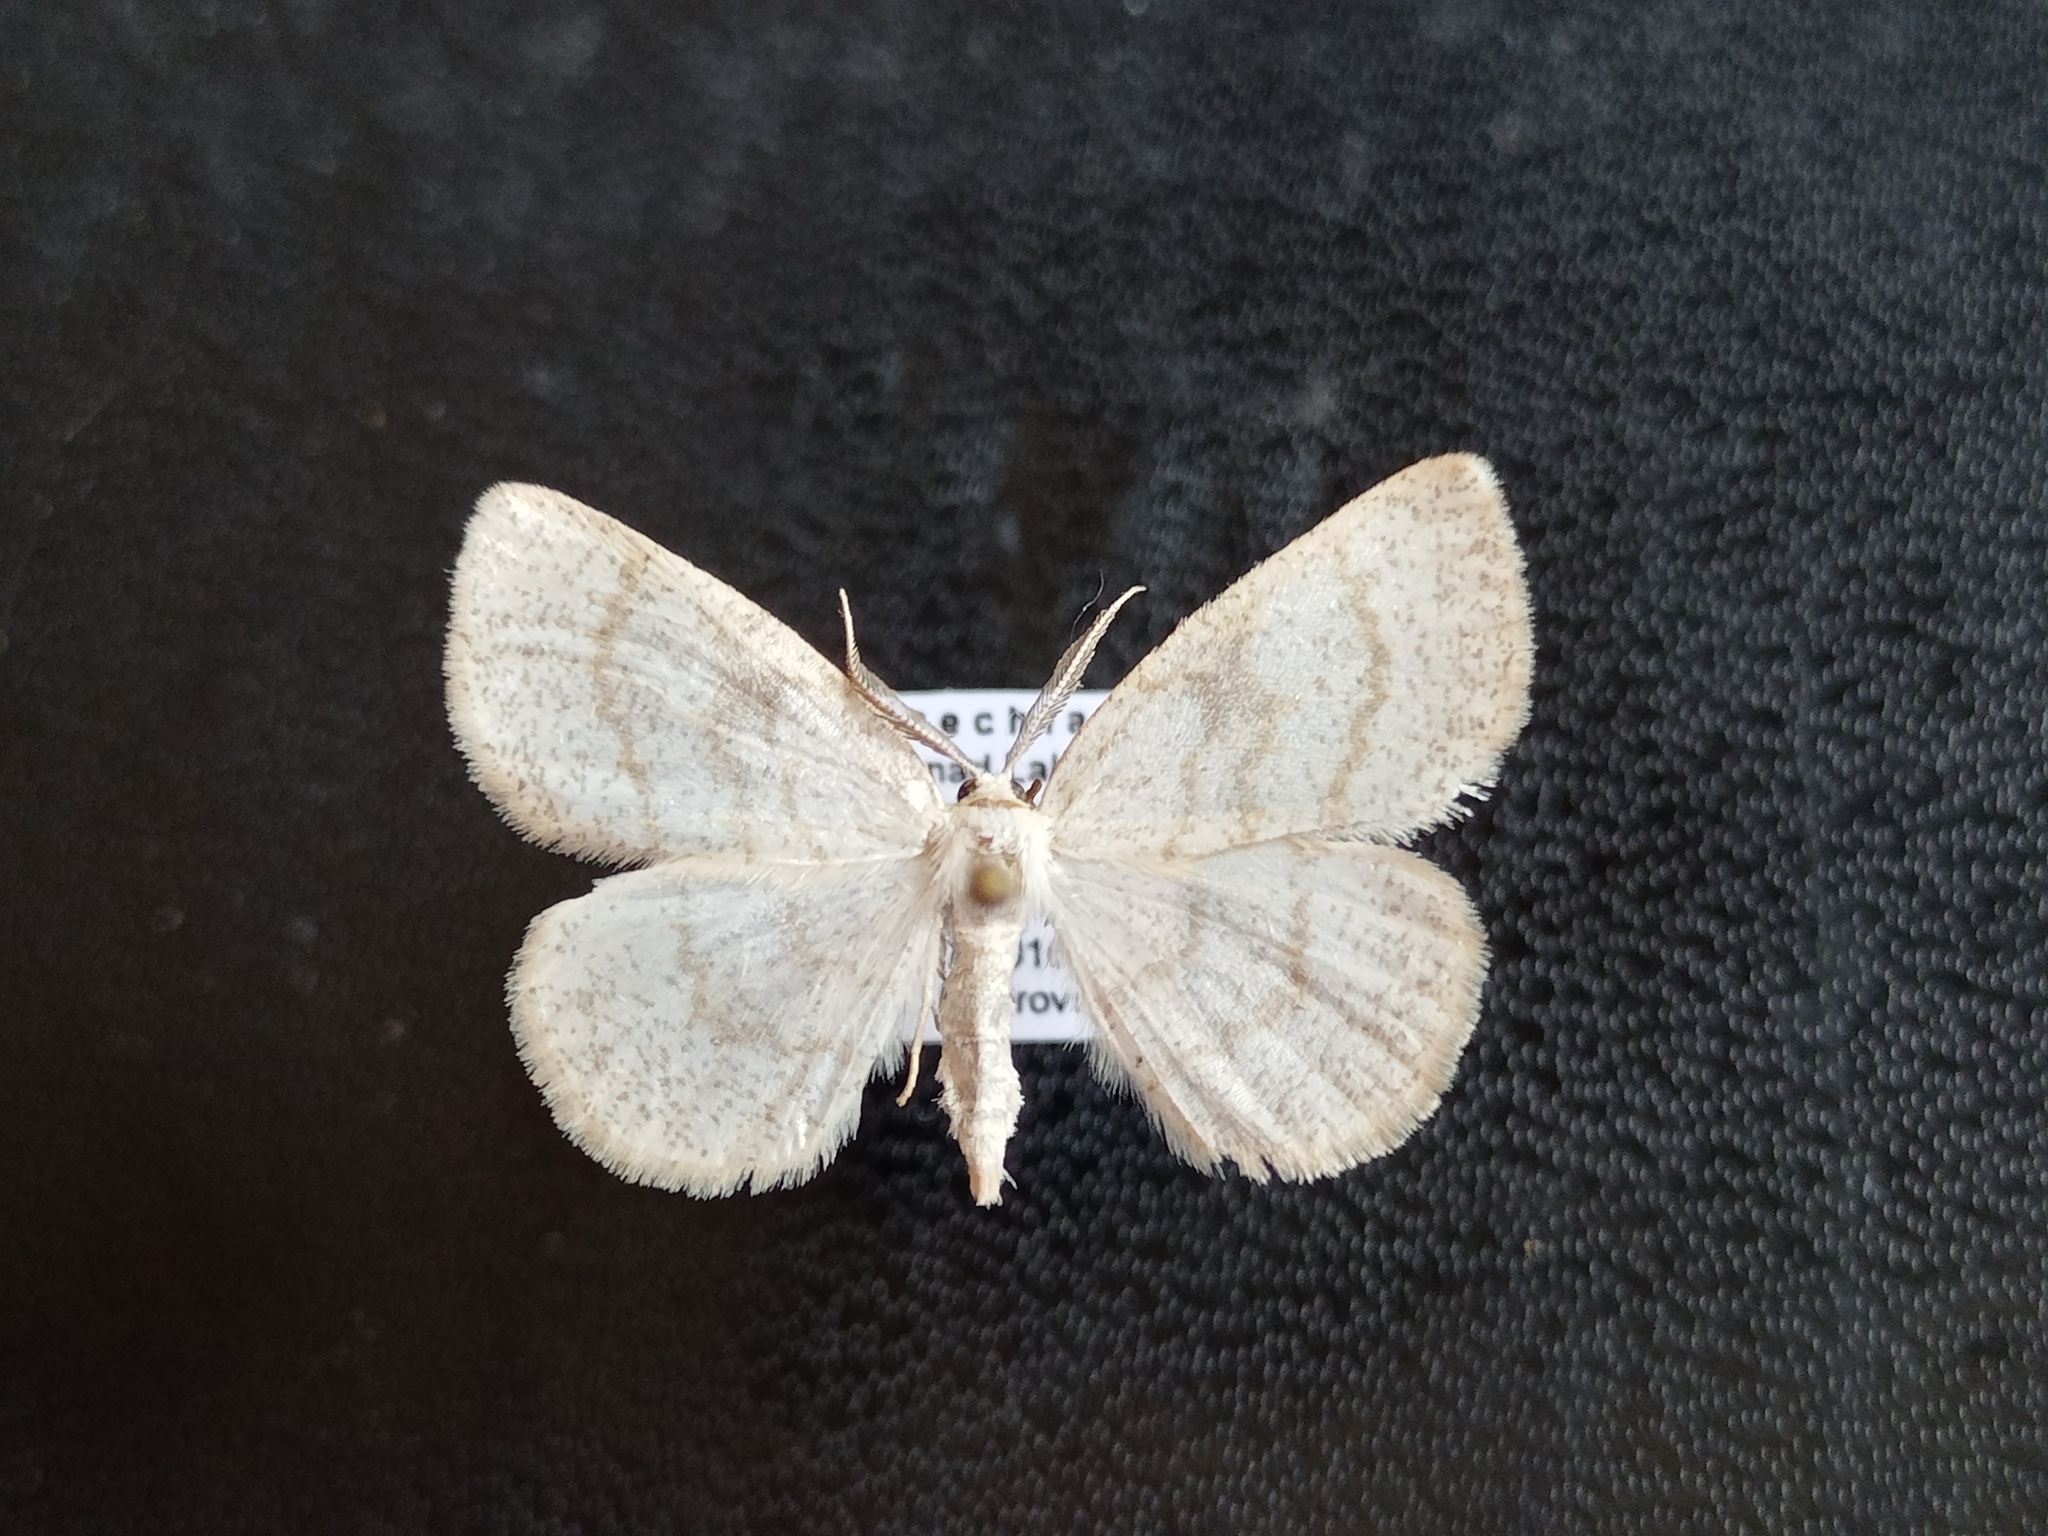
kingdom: Animalia
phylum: Arthropoda
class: Insecta
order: Lepidoptera
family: Geometridae
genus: Cabera
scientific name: Cabera exanthemata
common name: Common wave
